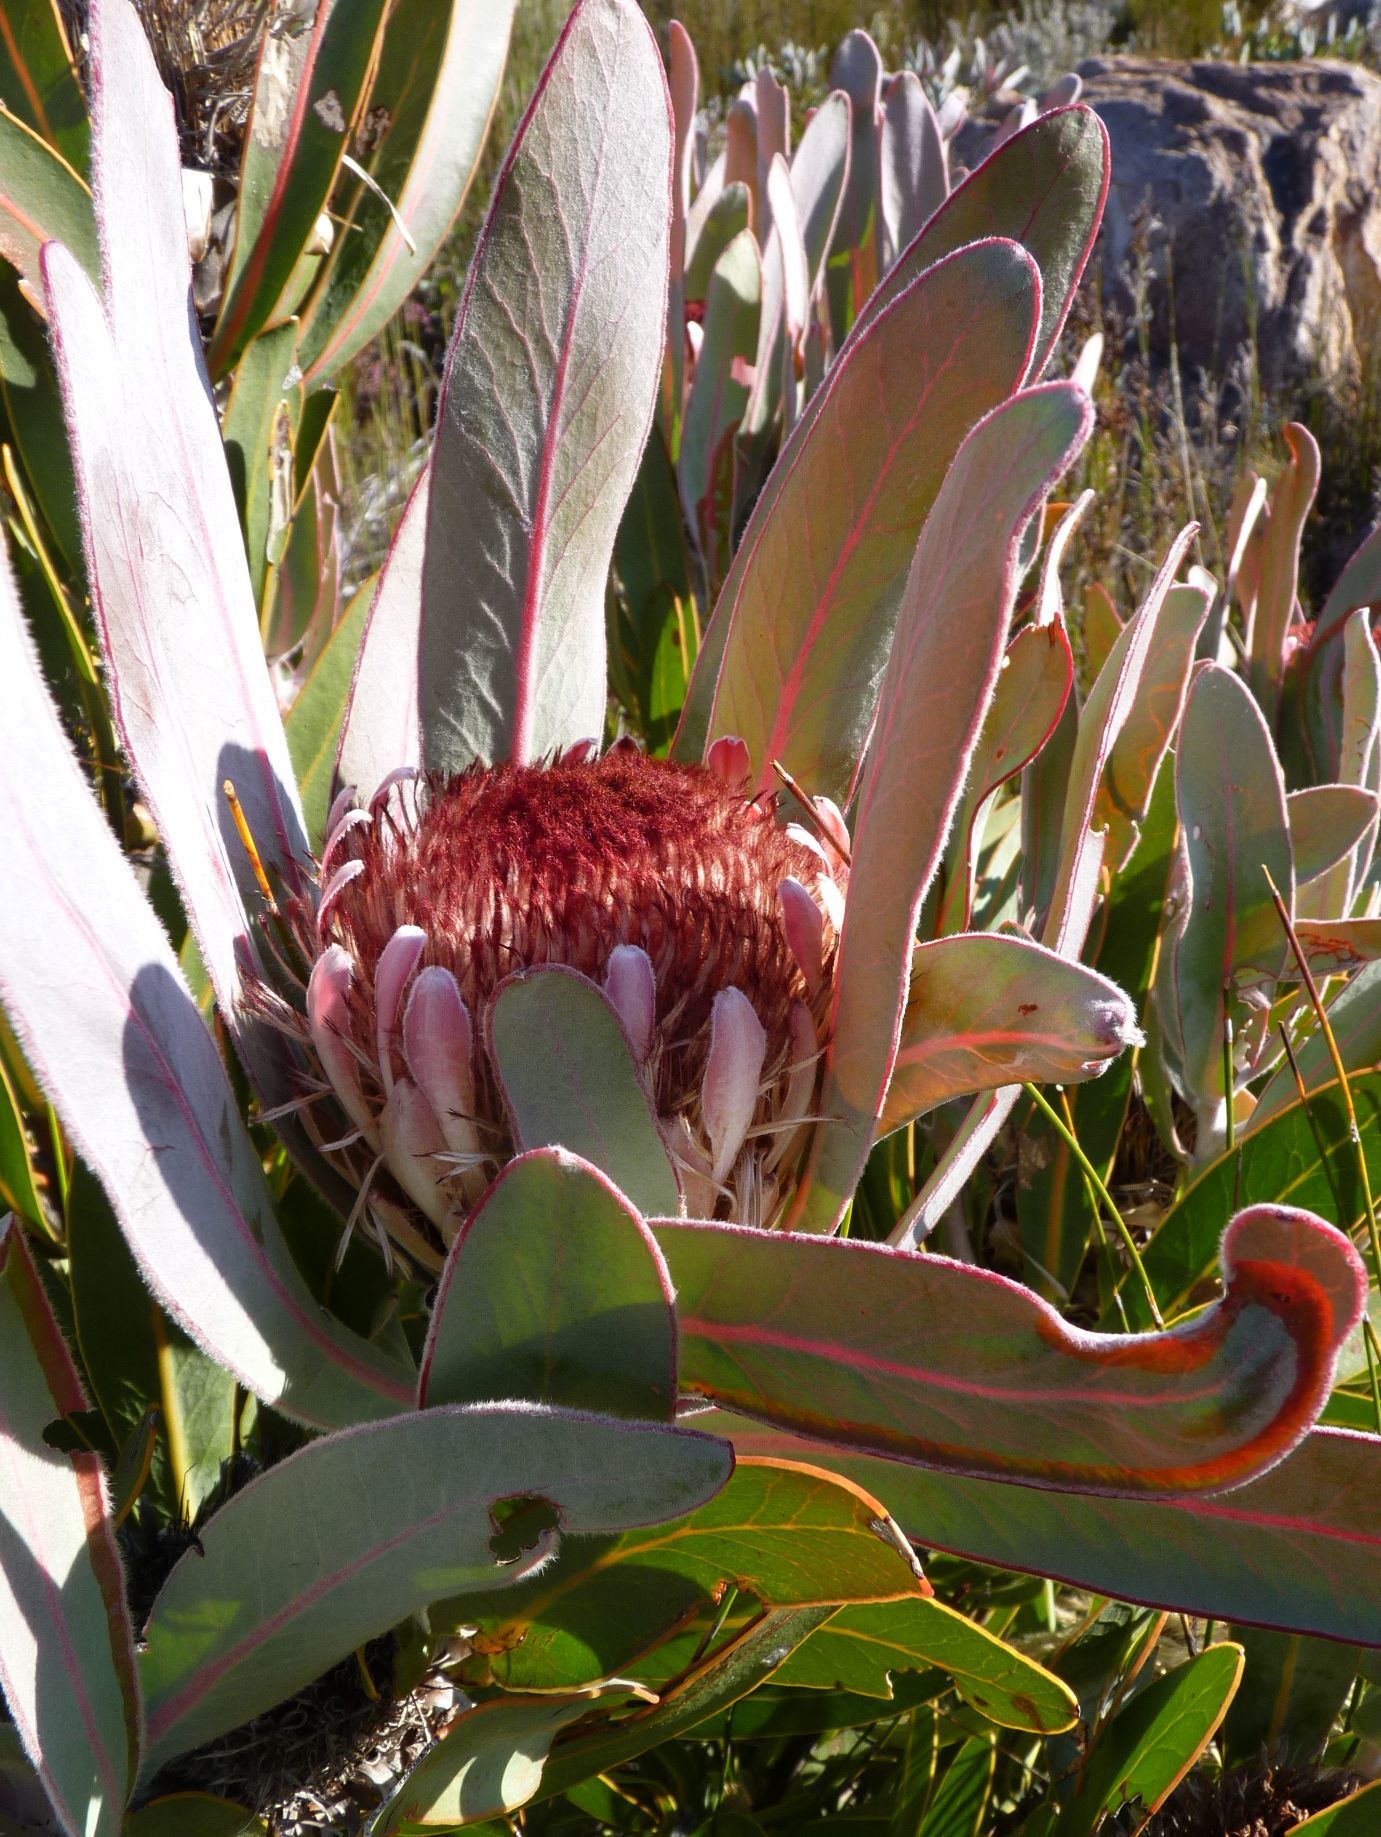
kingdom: Plantae
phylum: Tracheophyta
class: Magnoliopsida
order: Proteales
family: Proteaceae
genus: Protea
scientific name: Protea lorifolia
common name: Strap-leaved protea
